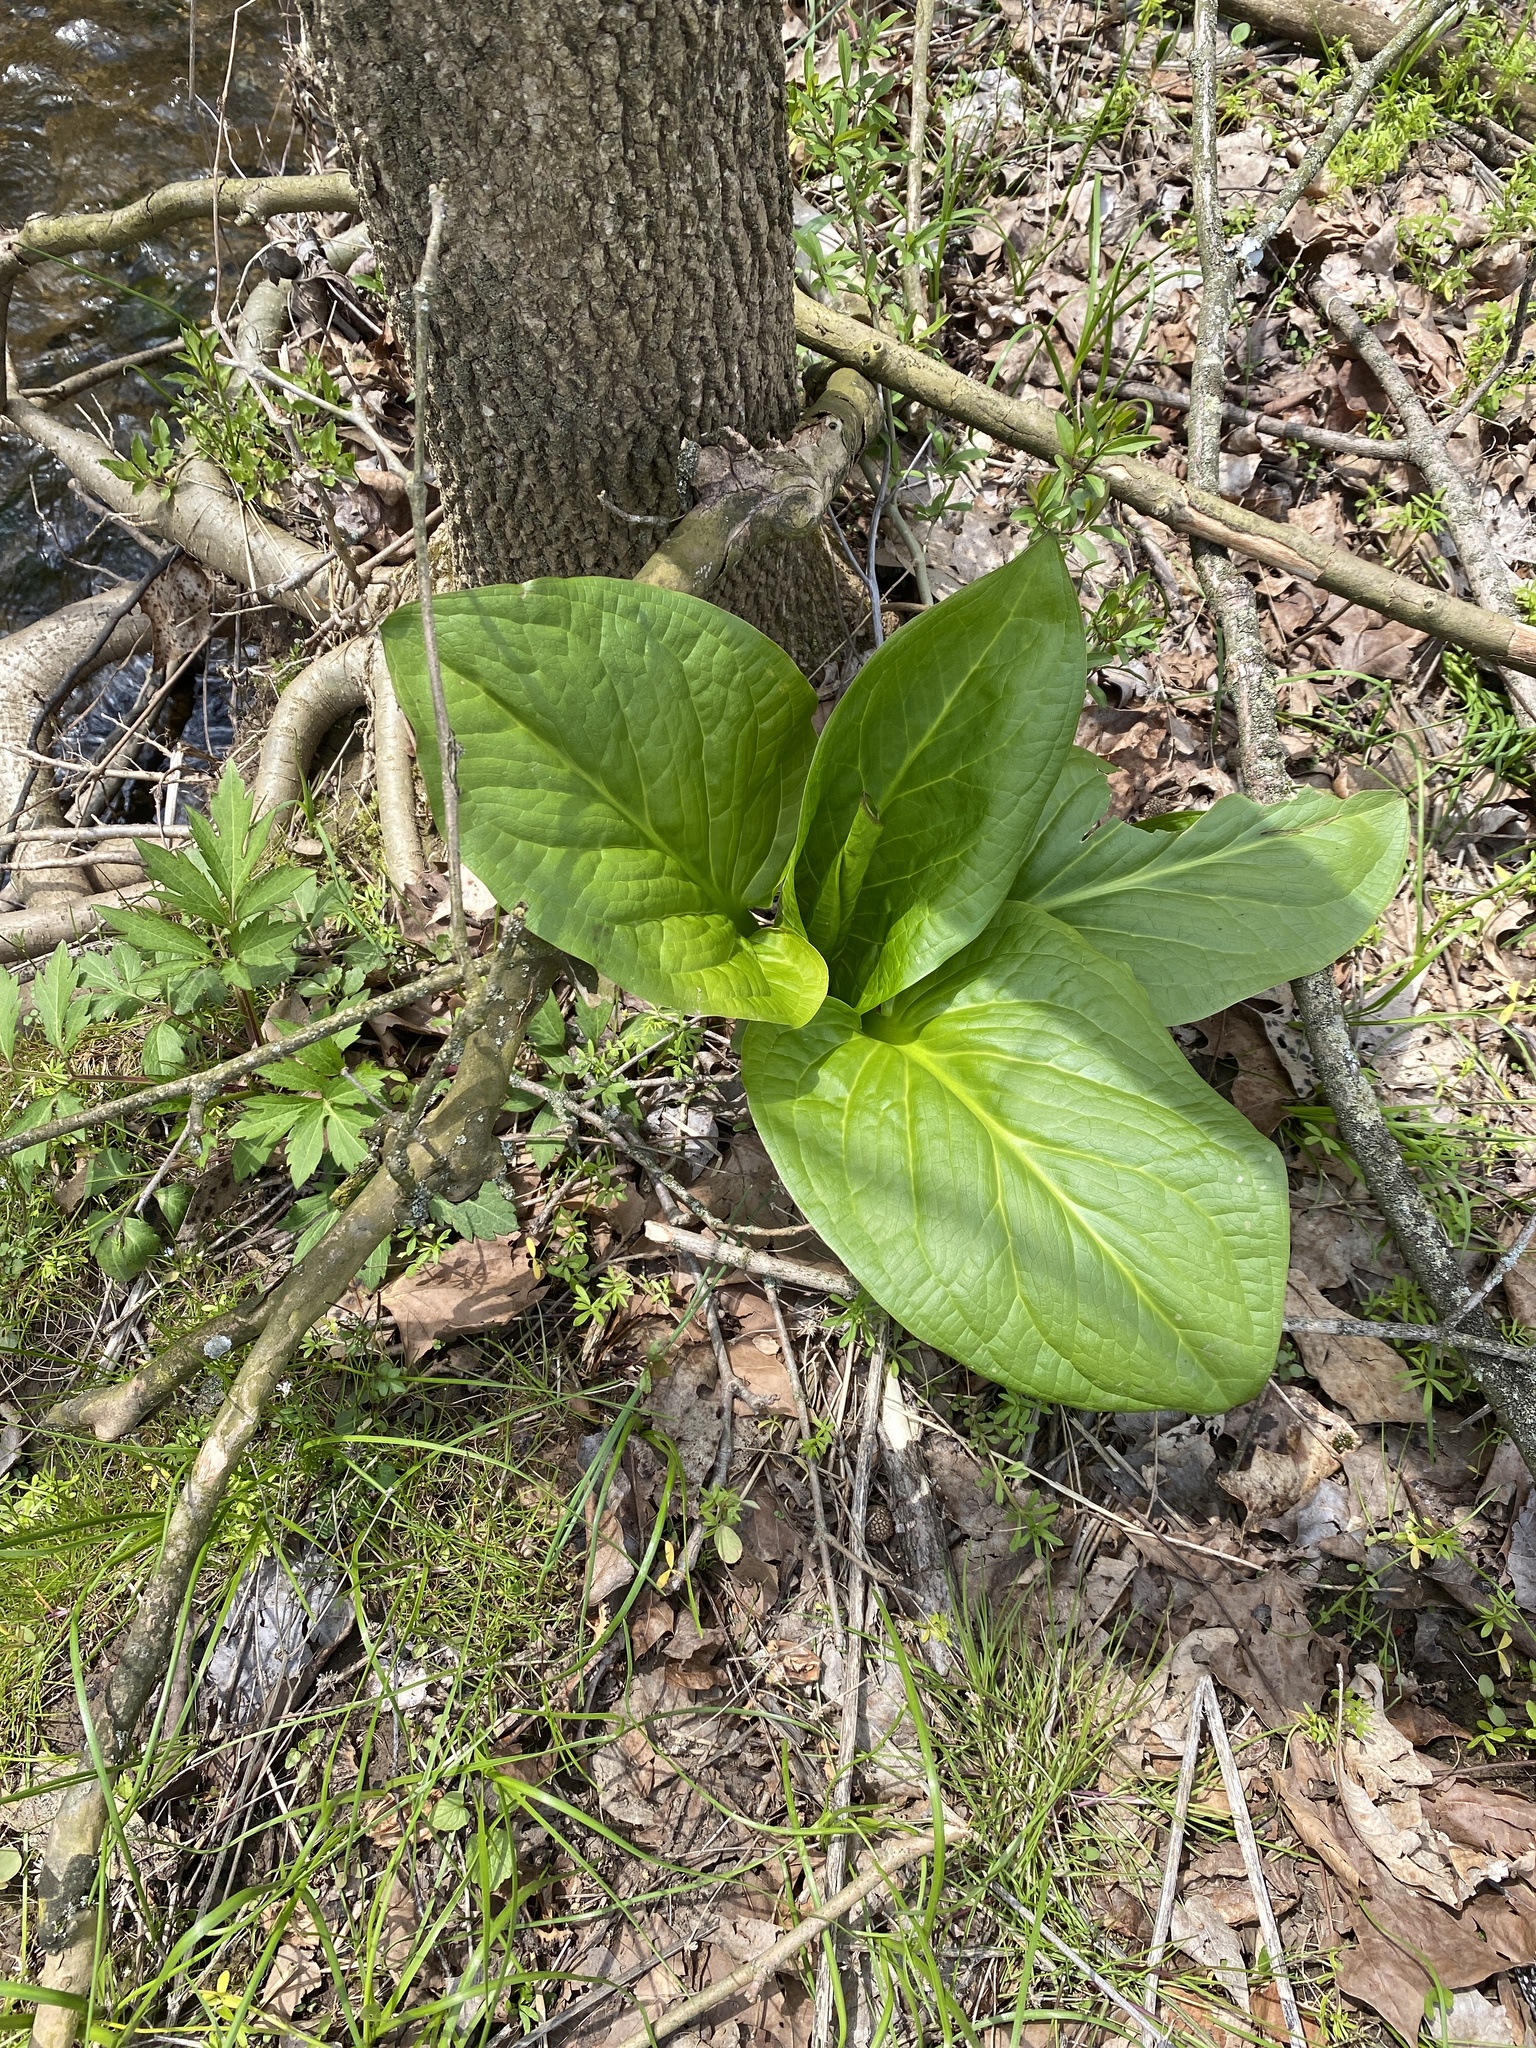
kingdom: Plantae
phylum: Tracheophyta
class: Liliopsida
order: Alismatales
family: Araceae
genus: Symplocarpus
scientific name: Symplocarpus foetidus
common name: Eastern skunk cabbage
